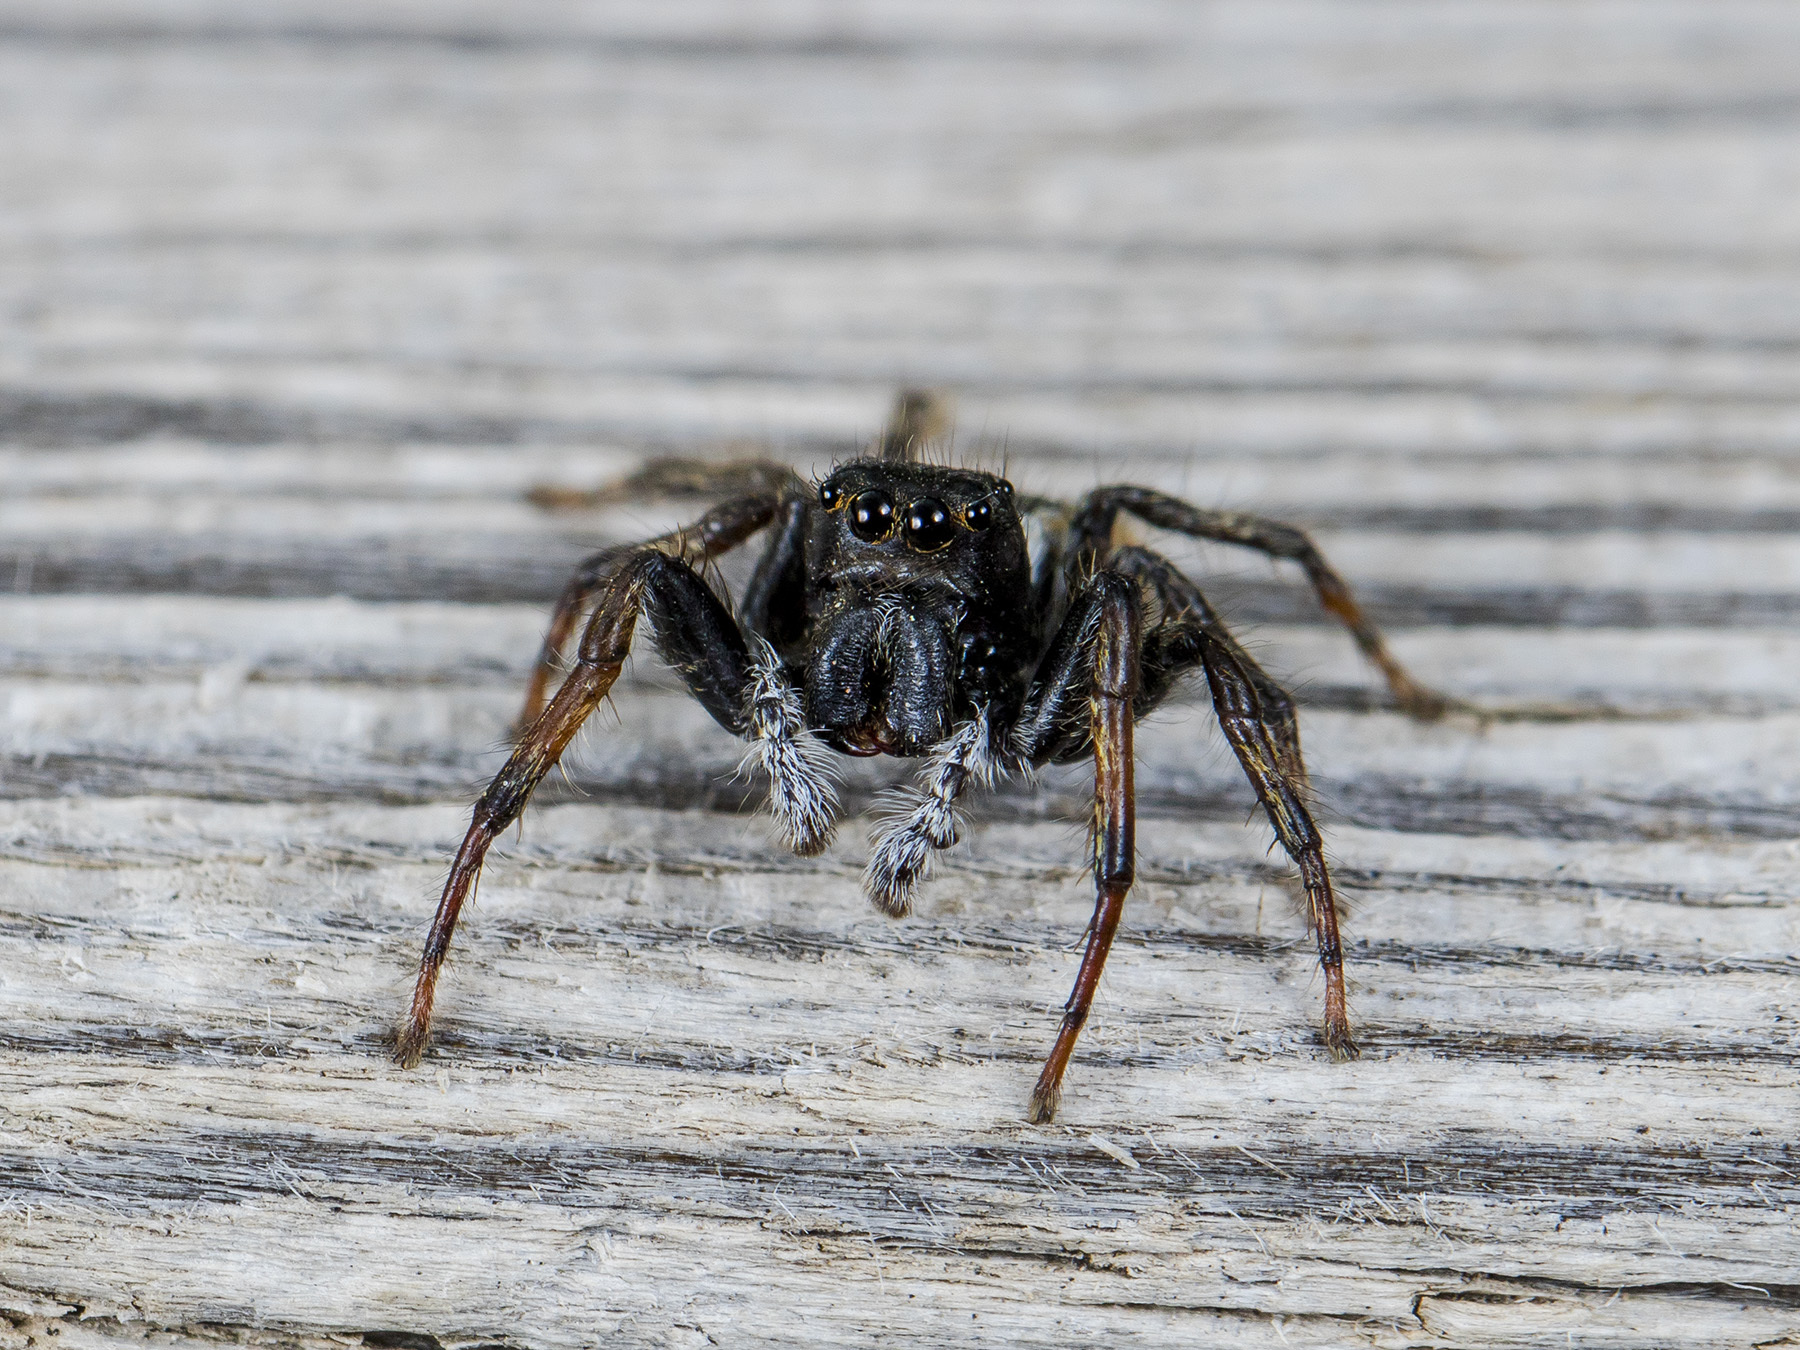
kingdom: Animalia
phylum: Arthropoda
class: Arachnida
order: Araneae
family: Salticidae
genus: Philaeus
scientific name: Philaeus chrysops
